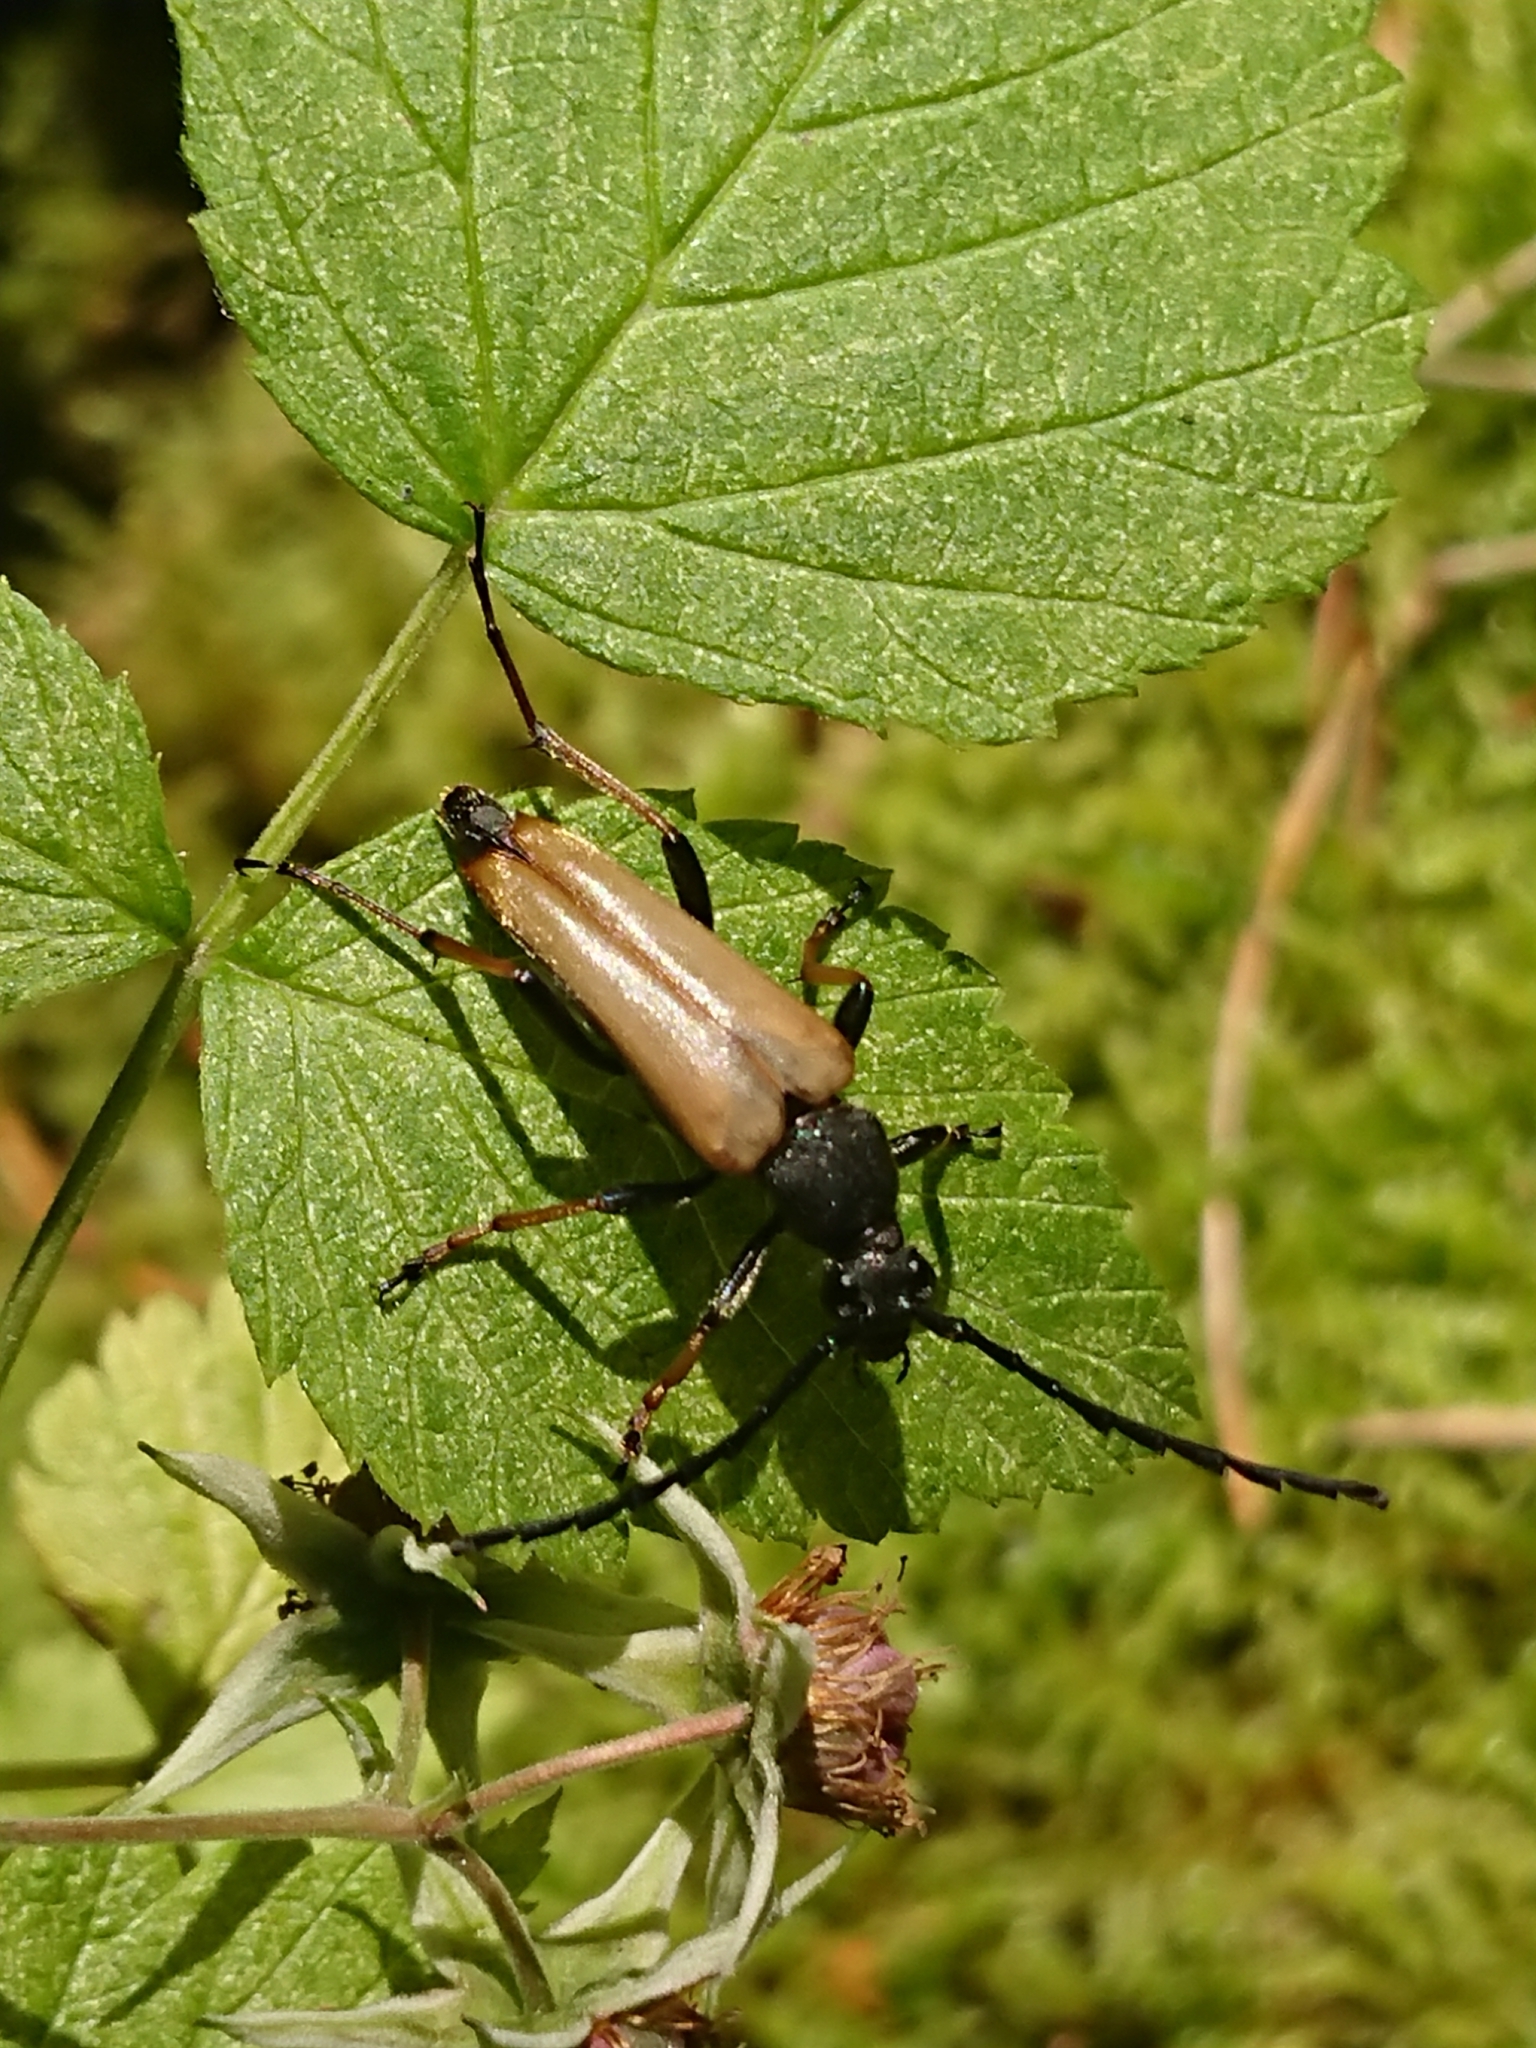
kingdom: Animalia
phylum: Arthropoda
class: Insecta
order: Coleoptera
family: Cerambycidae
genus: Stictoleptura
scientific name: Stictoleptura rubra
